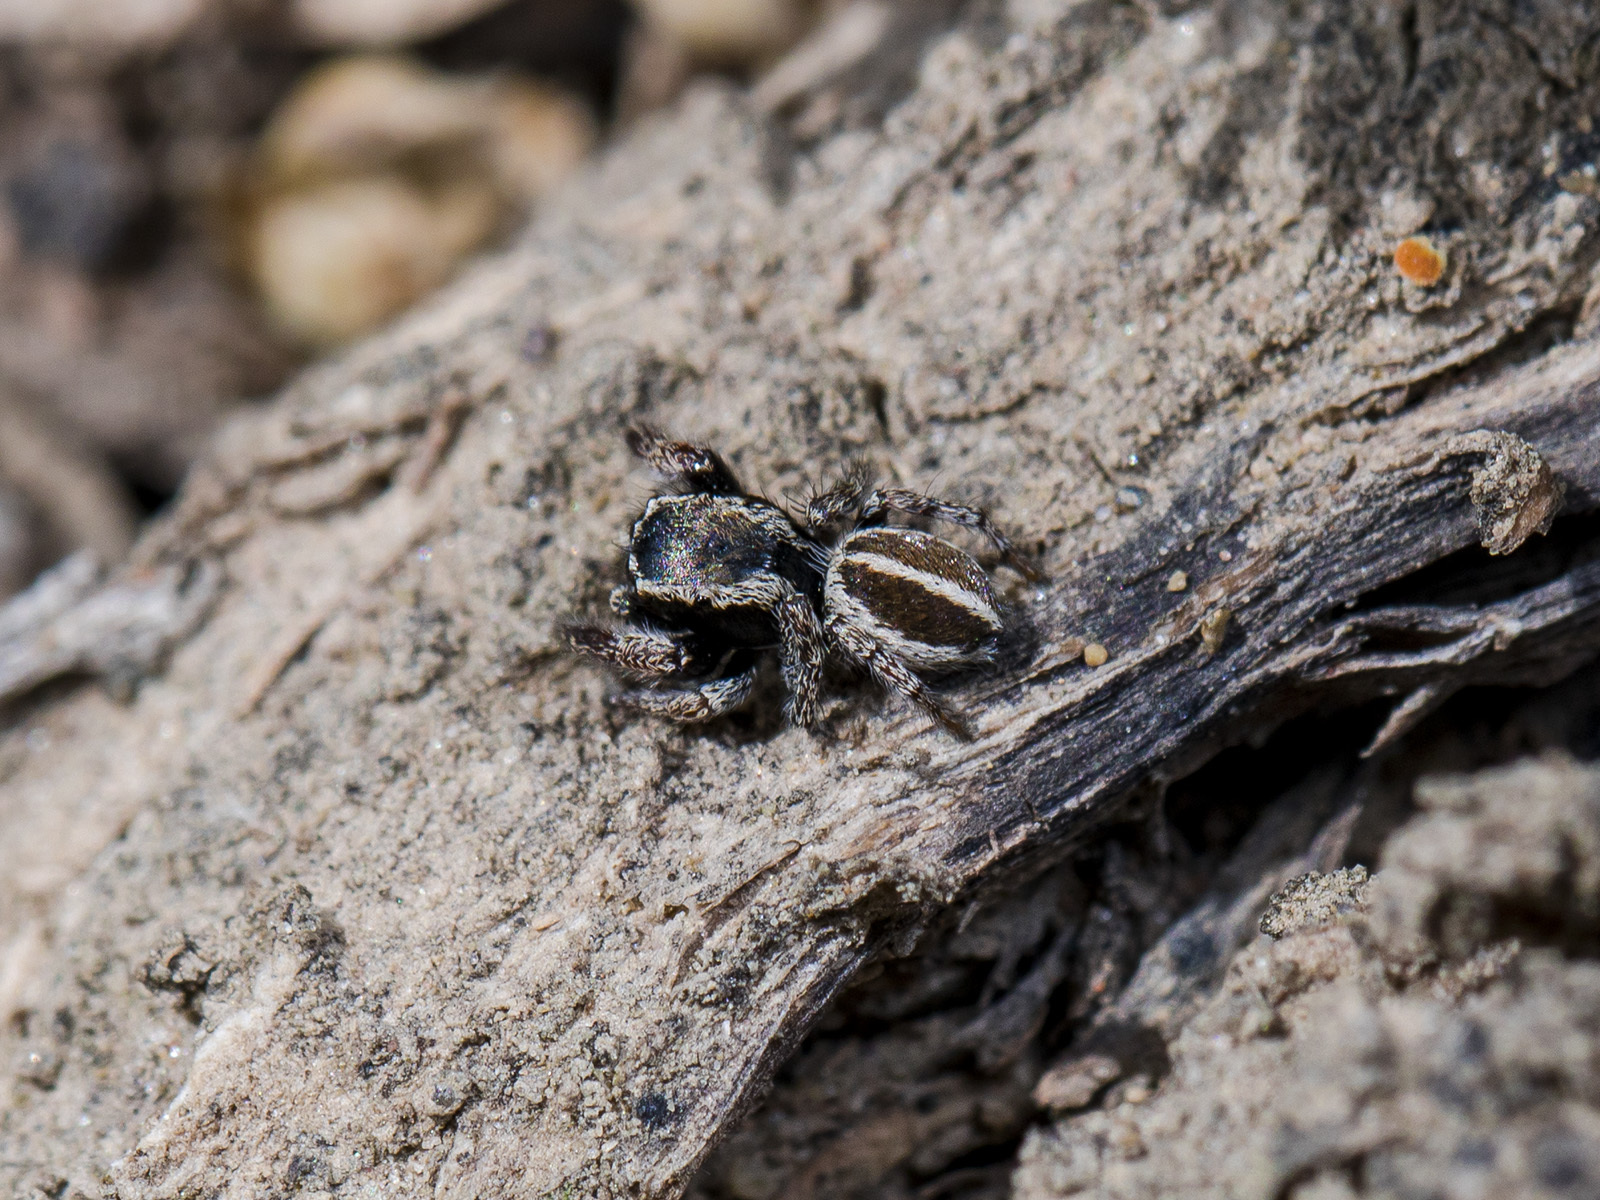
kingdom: Animalia
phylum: Arthropoda
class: Arachnida
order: Araneae
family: Salticidae
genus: Pellenes
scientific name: Pellenes epularis
